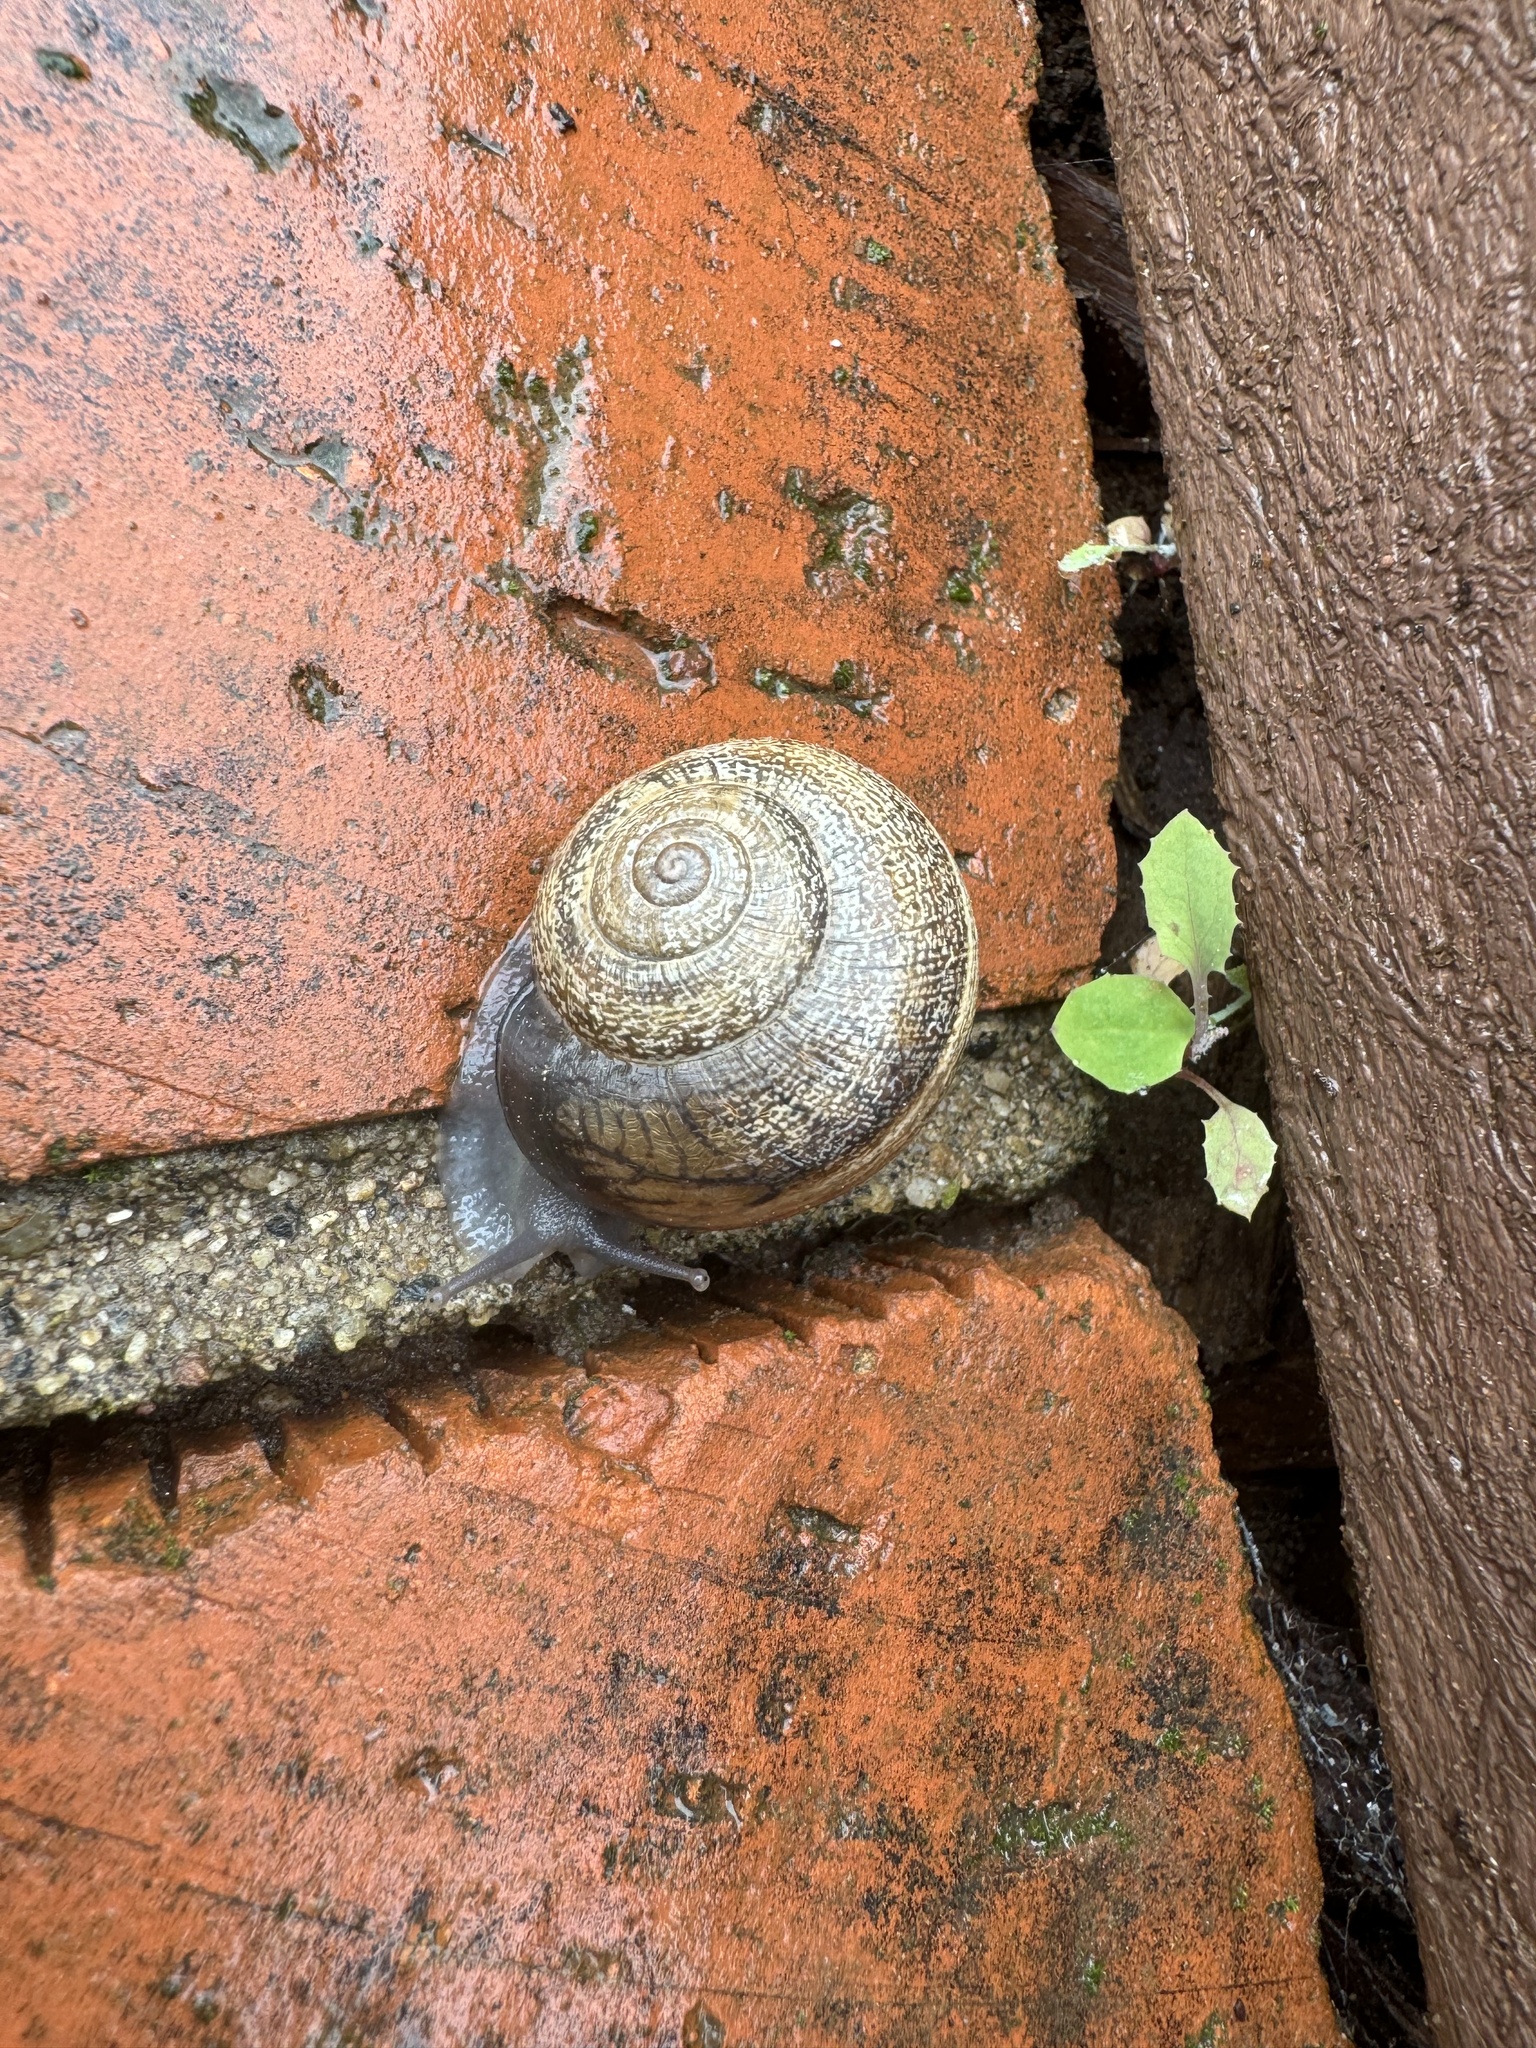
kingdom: Animalia
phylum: Mollusca
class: Gastropoda
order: Stylommatophora
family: Helicidae
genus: Otala
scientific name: Otala lactea
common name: Milk snail
